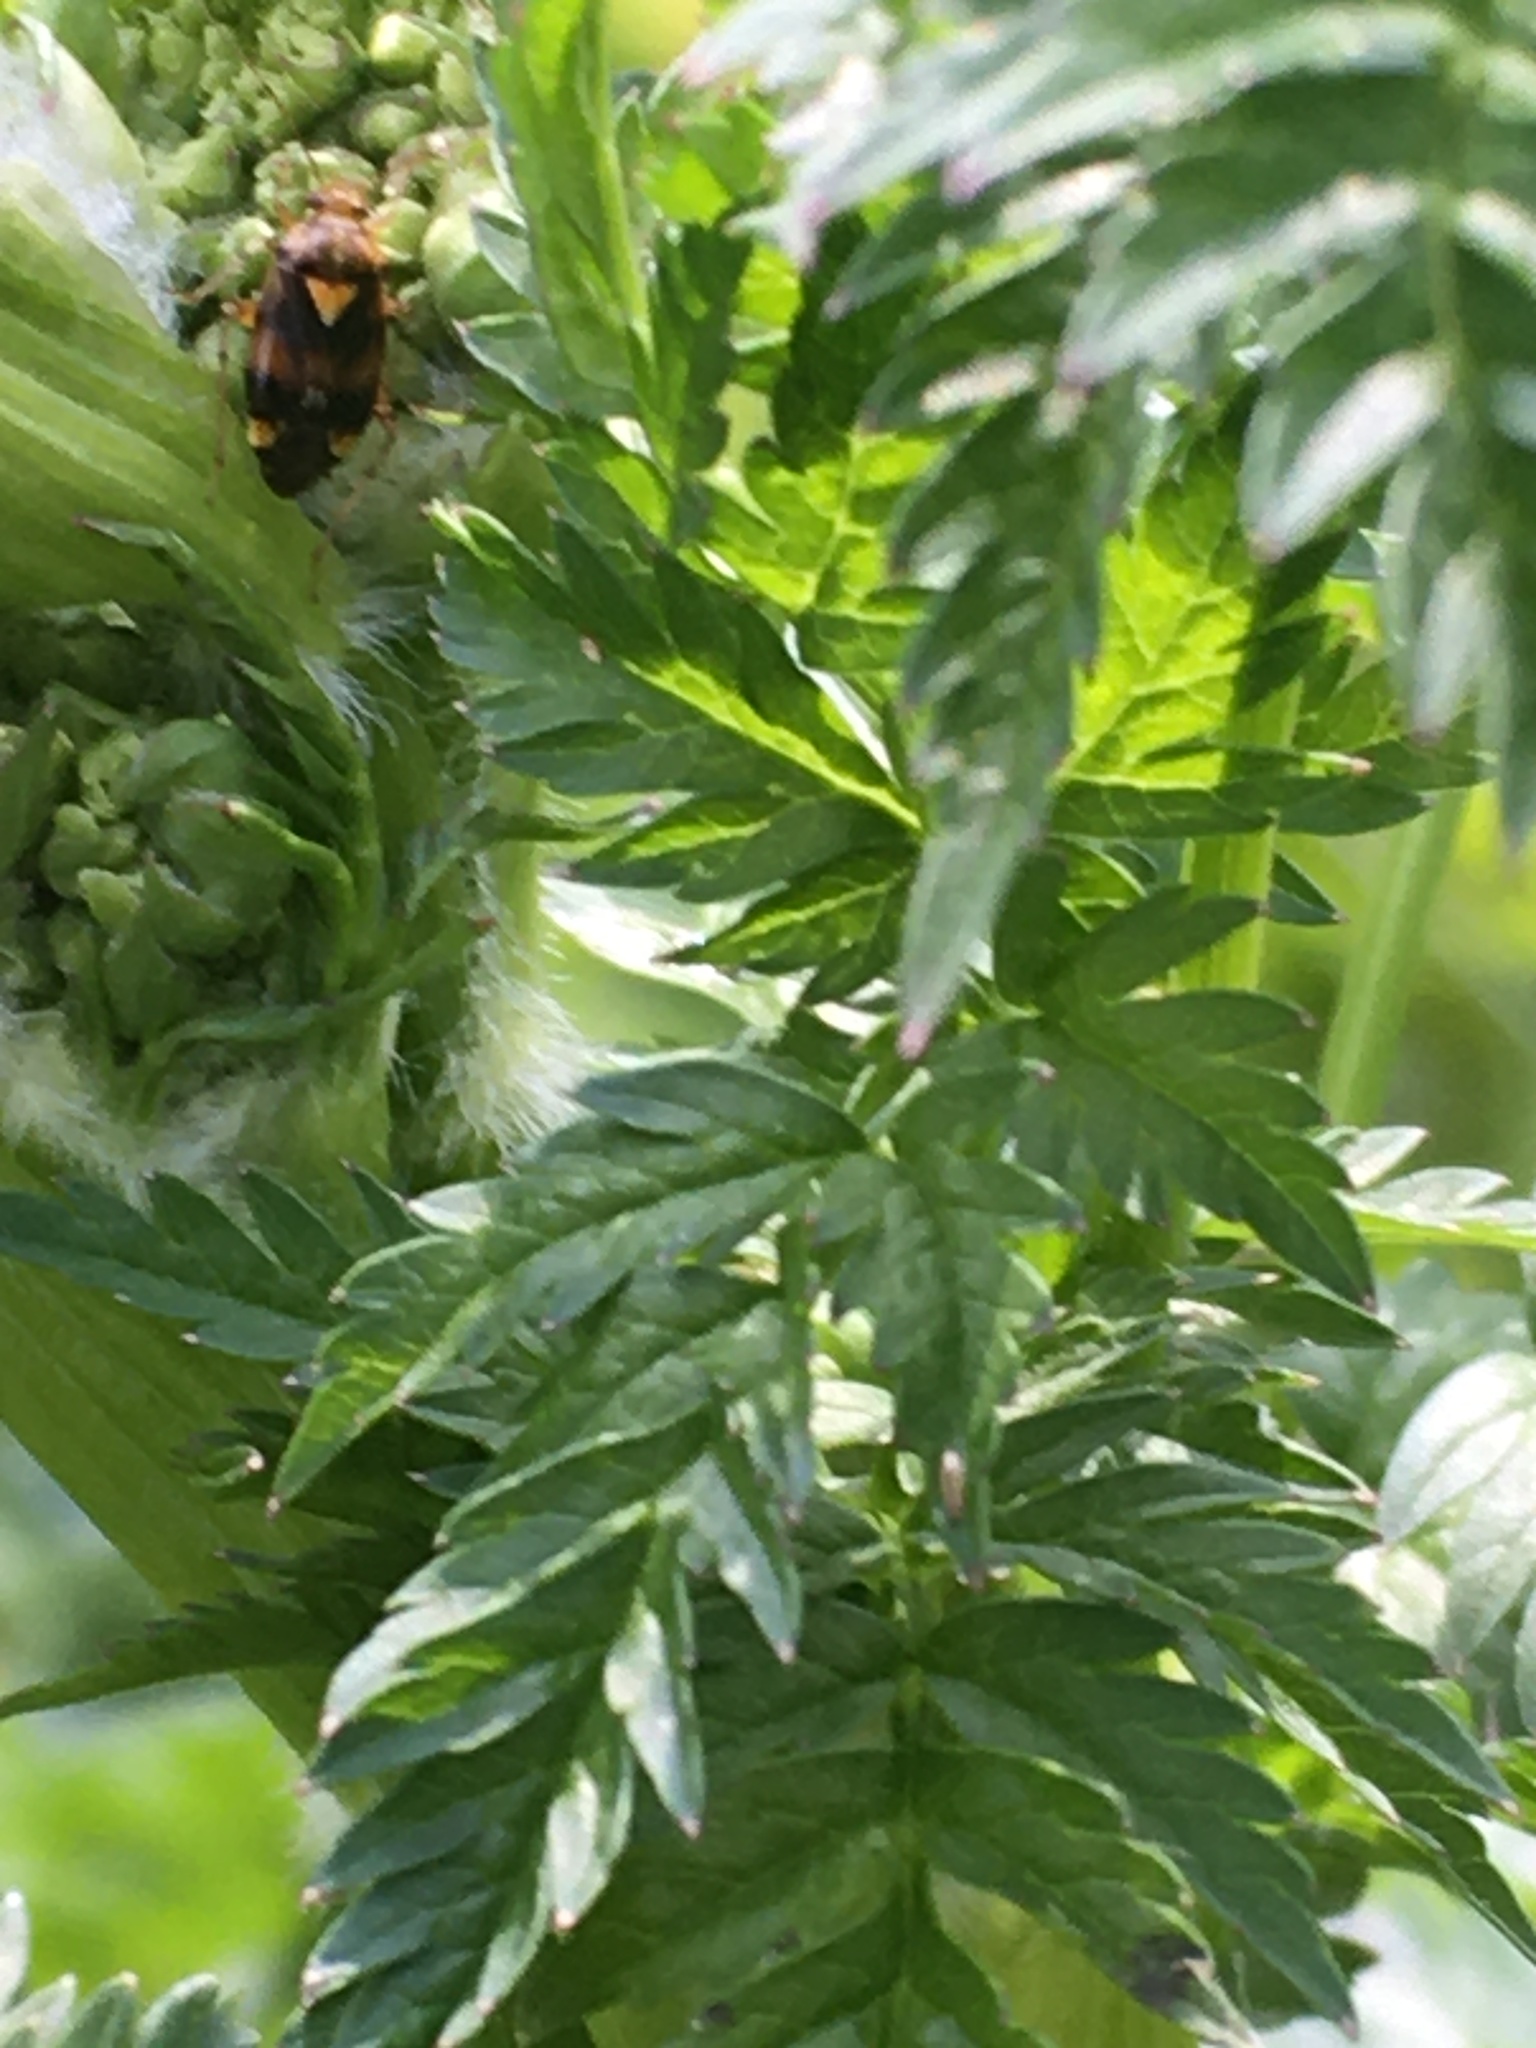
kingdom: Animalia
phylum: Arthropoda
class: Insecta
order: Hemiptera
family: Miridae
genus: Liocoris
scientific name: Liocoris tripustulatus
